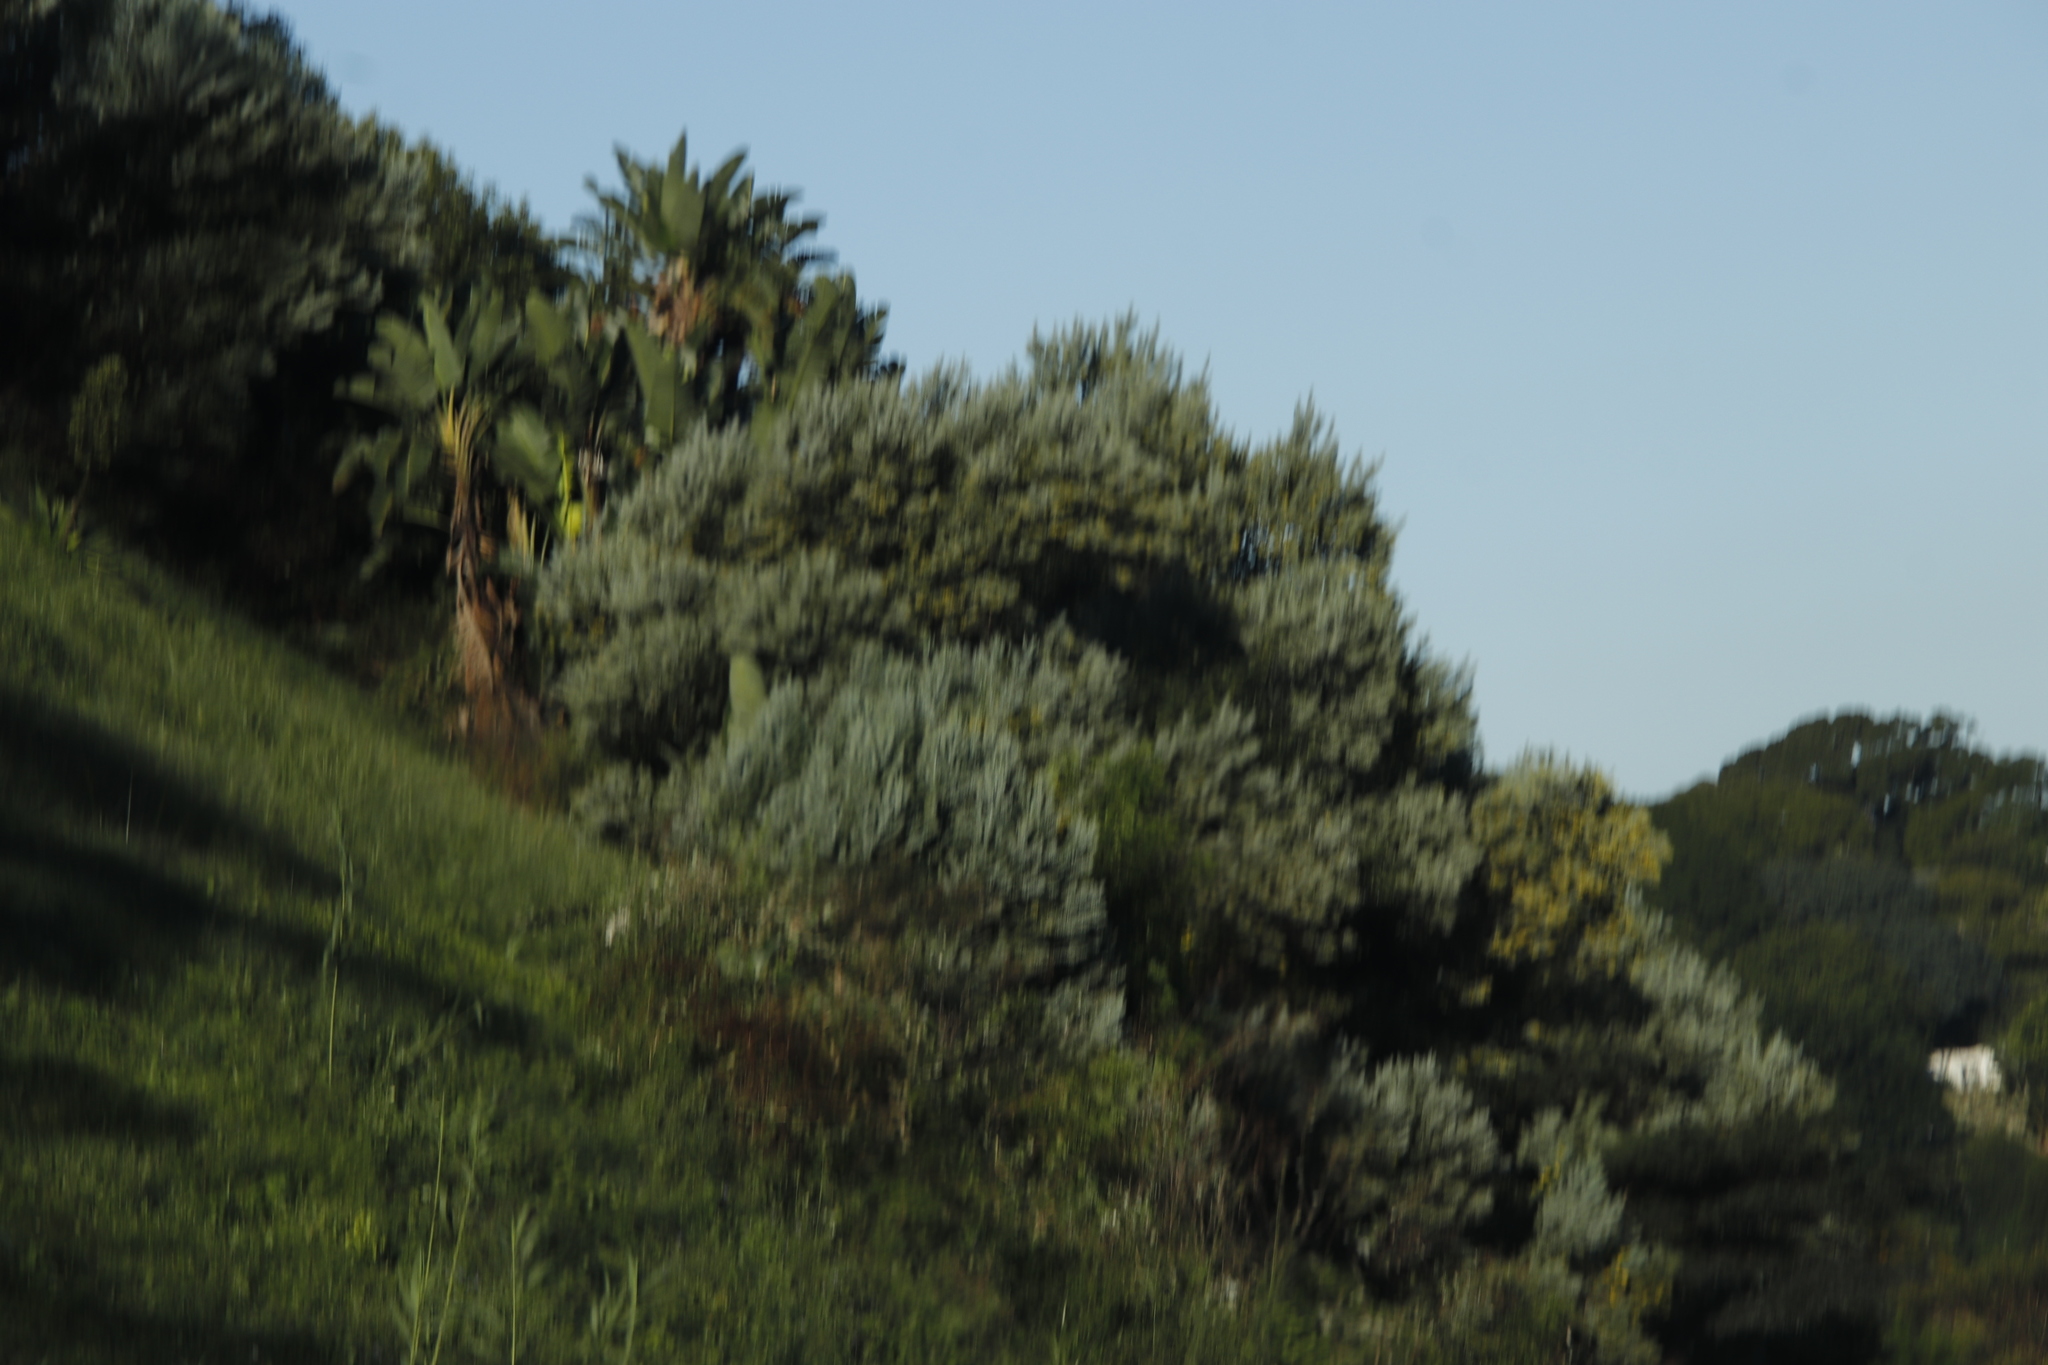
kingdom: Plantae
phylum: Tracheophyta
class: Magnoliopsida
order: Fabales
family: Fabaceae
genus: Acacia
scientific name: Acacia podalyriifolia
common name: Pearl wattle
